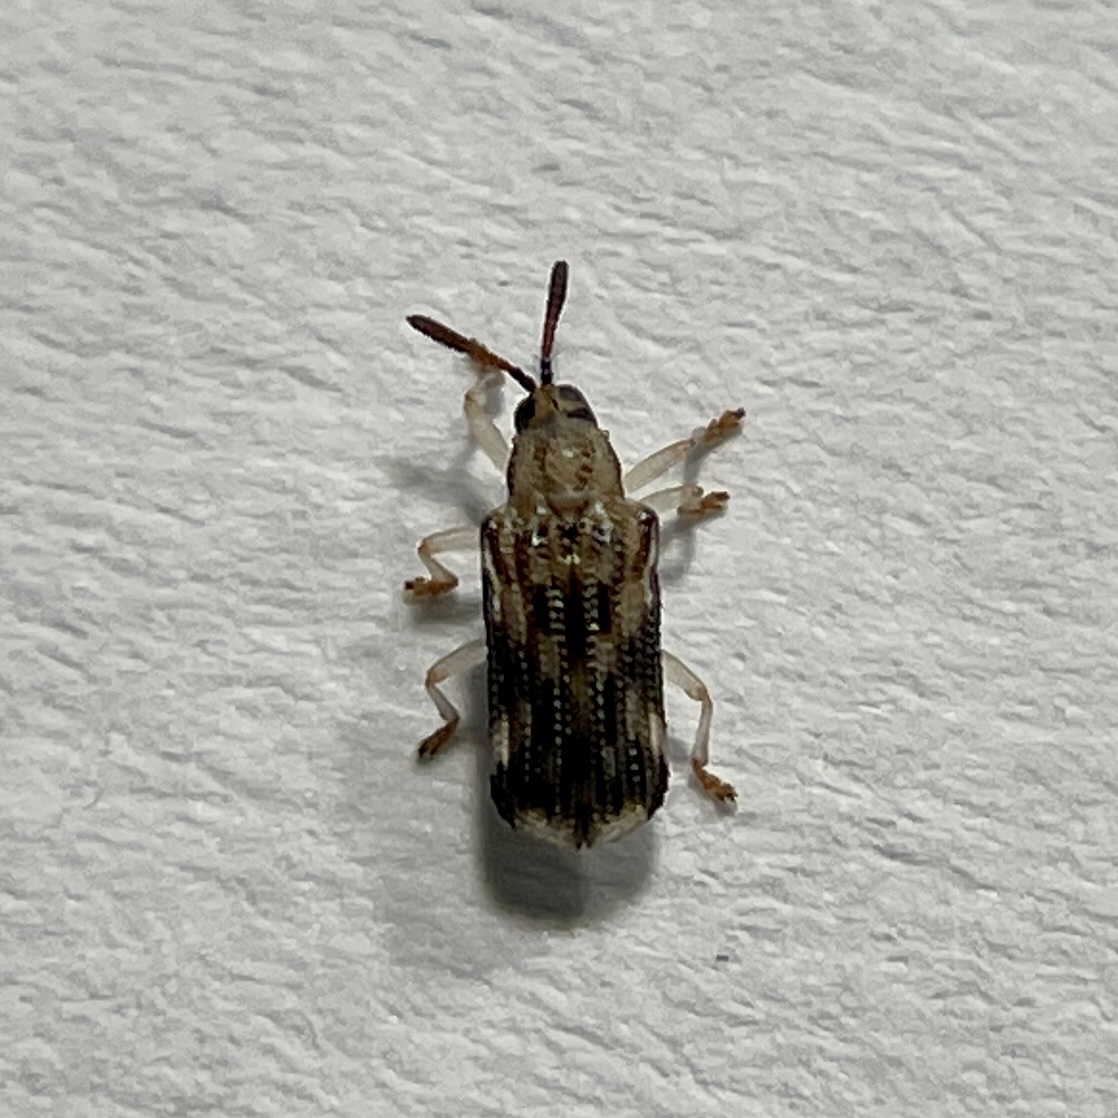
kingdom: Animalia
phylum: Arthropoda
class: Insecta
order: Coleoptera
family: Chrysomelidae
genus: Sumitrosis
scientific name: Sumitrosis inaequalis
